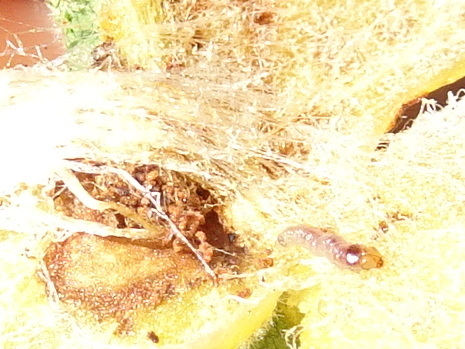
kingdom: Animalia
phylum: Arthropoda
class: Insecta
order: Hymenoptera
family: Cynipidae
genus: Cynips
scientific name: Cynips
